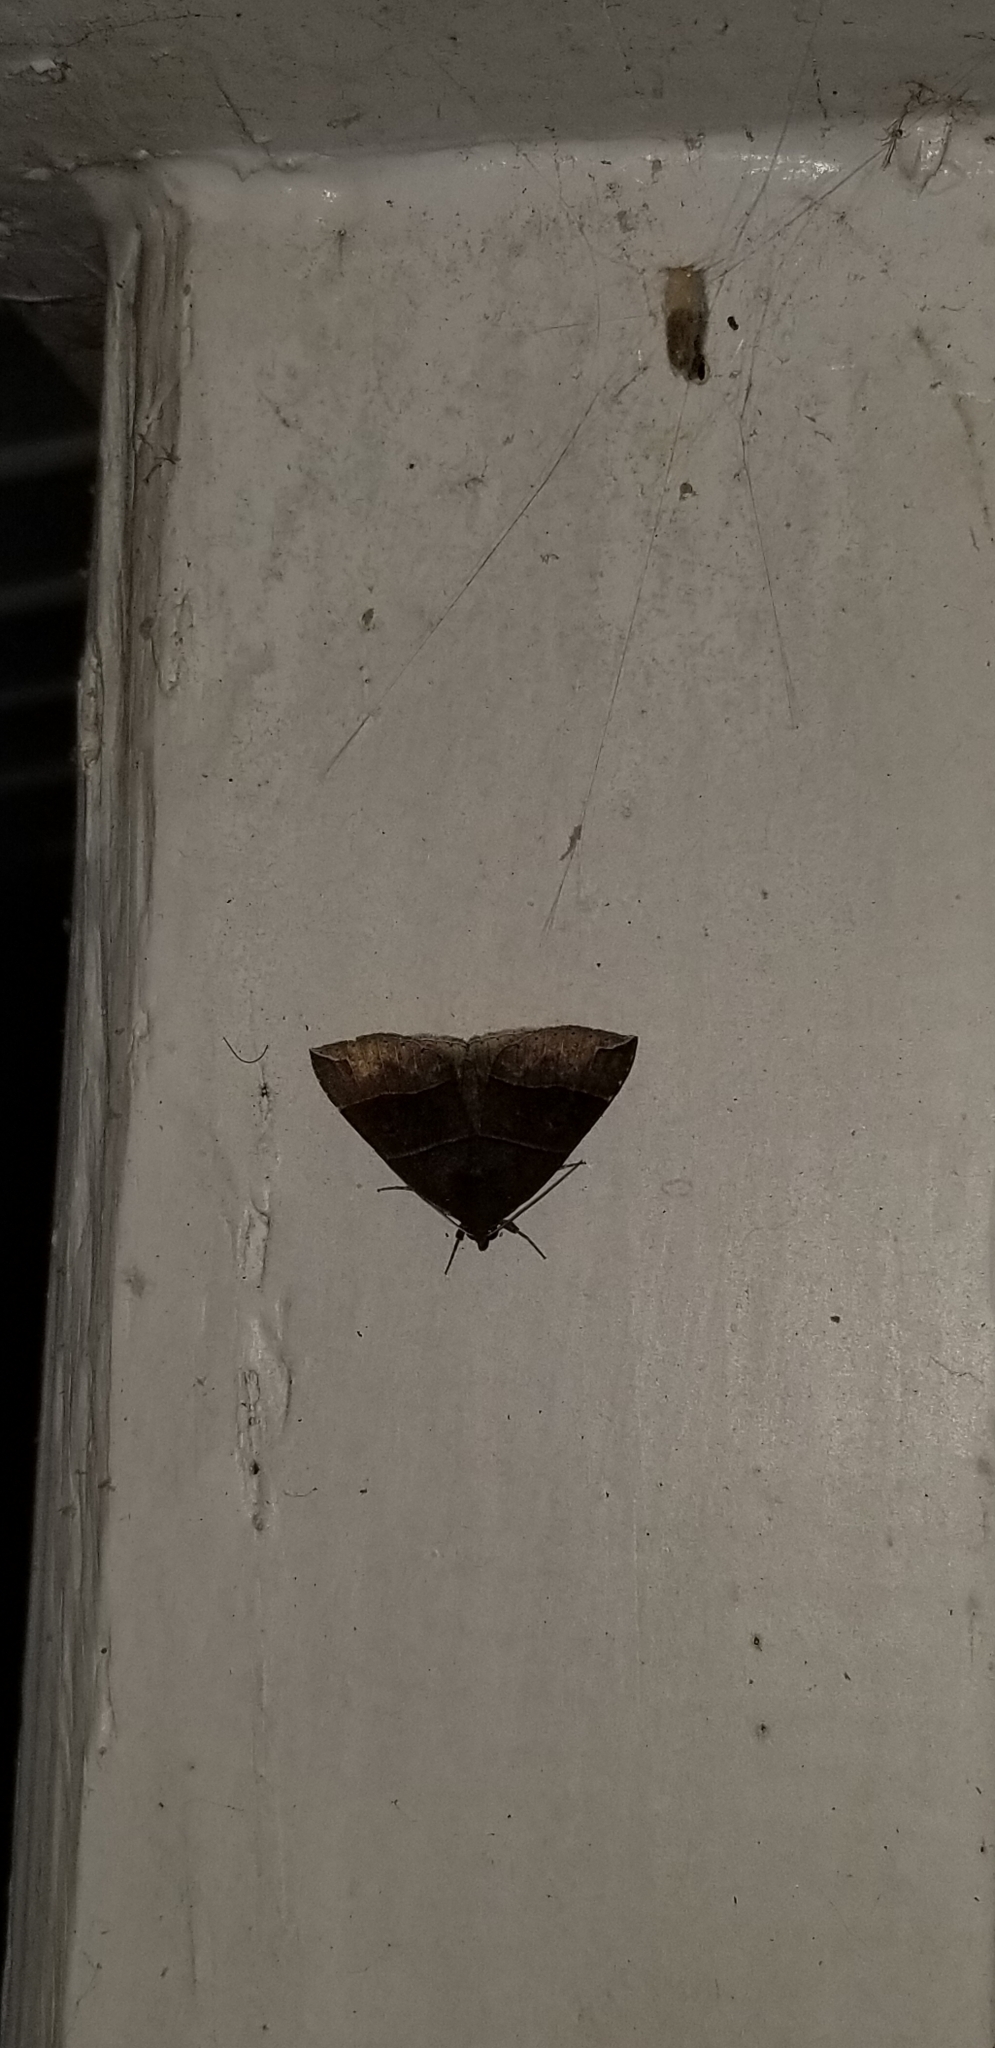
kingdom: Animalia
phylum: Arthropoda
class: Insecta
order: Lepidoptera
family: Erebidae
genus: Parallelia
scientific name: Parallelia bistriaris
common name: Maple looper moth
